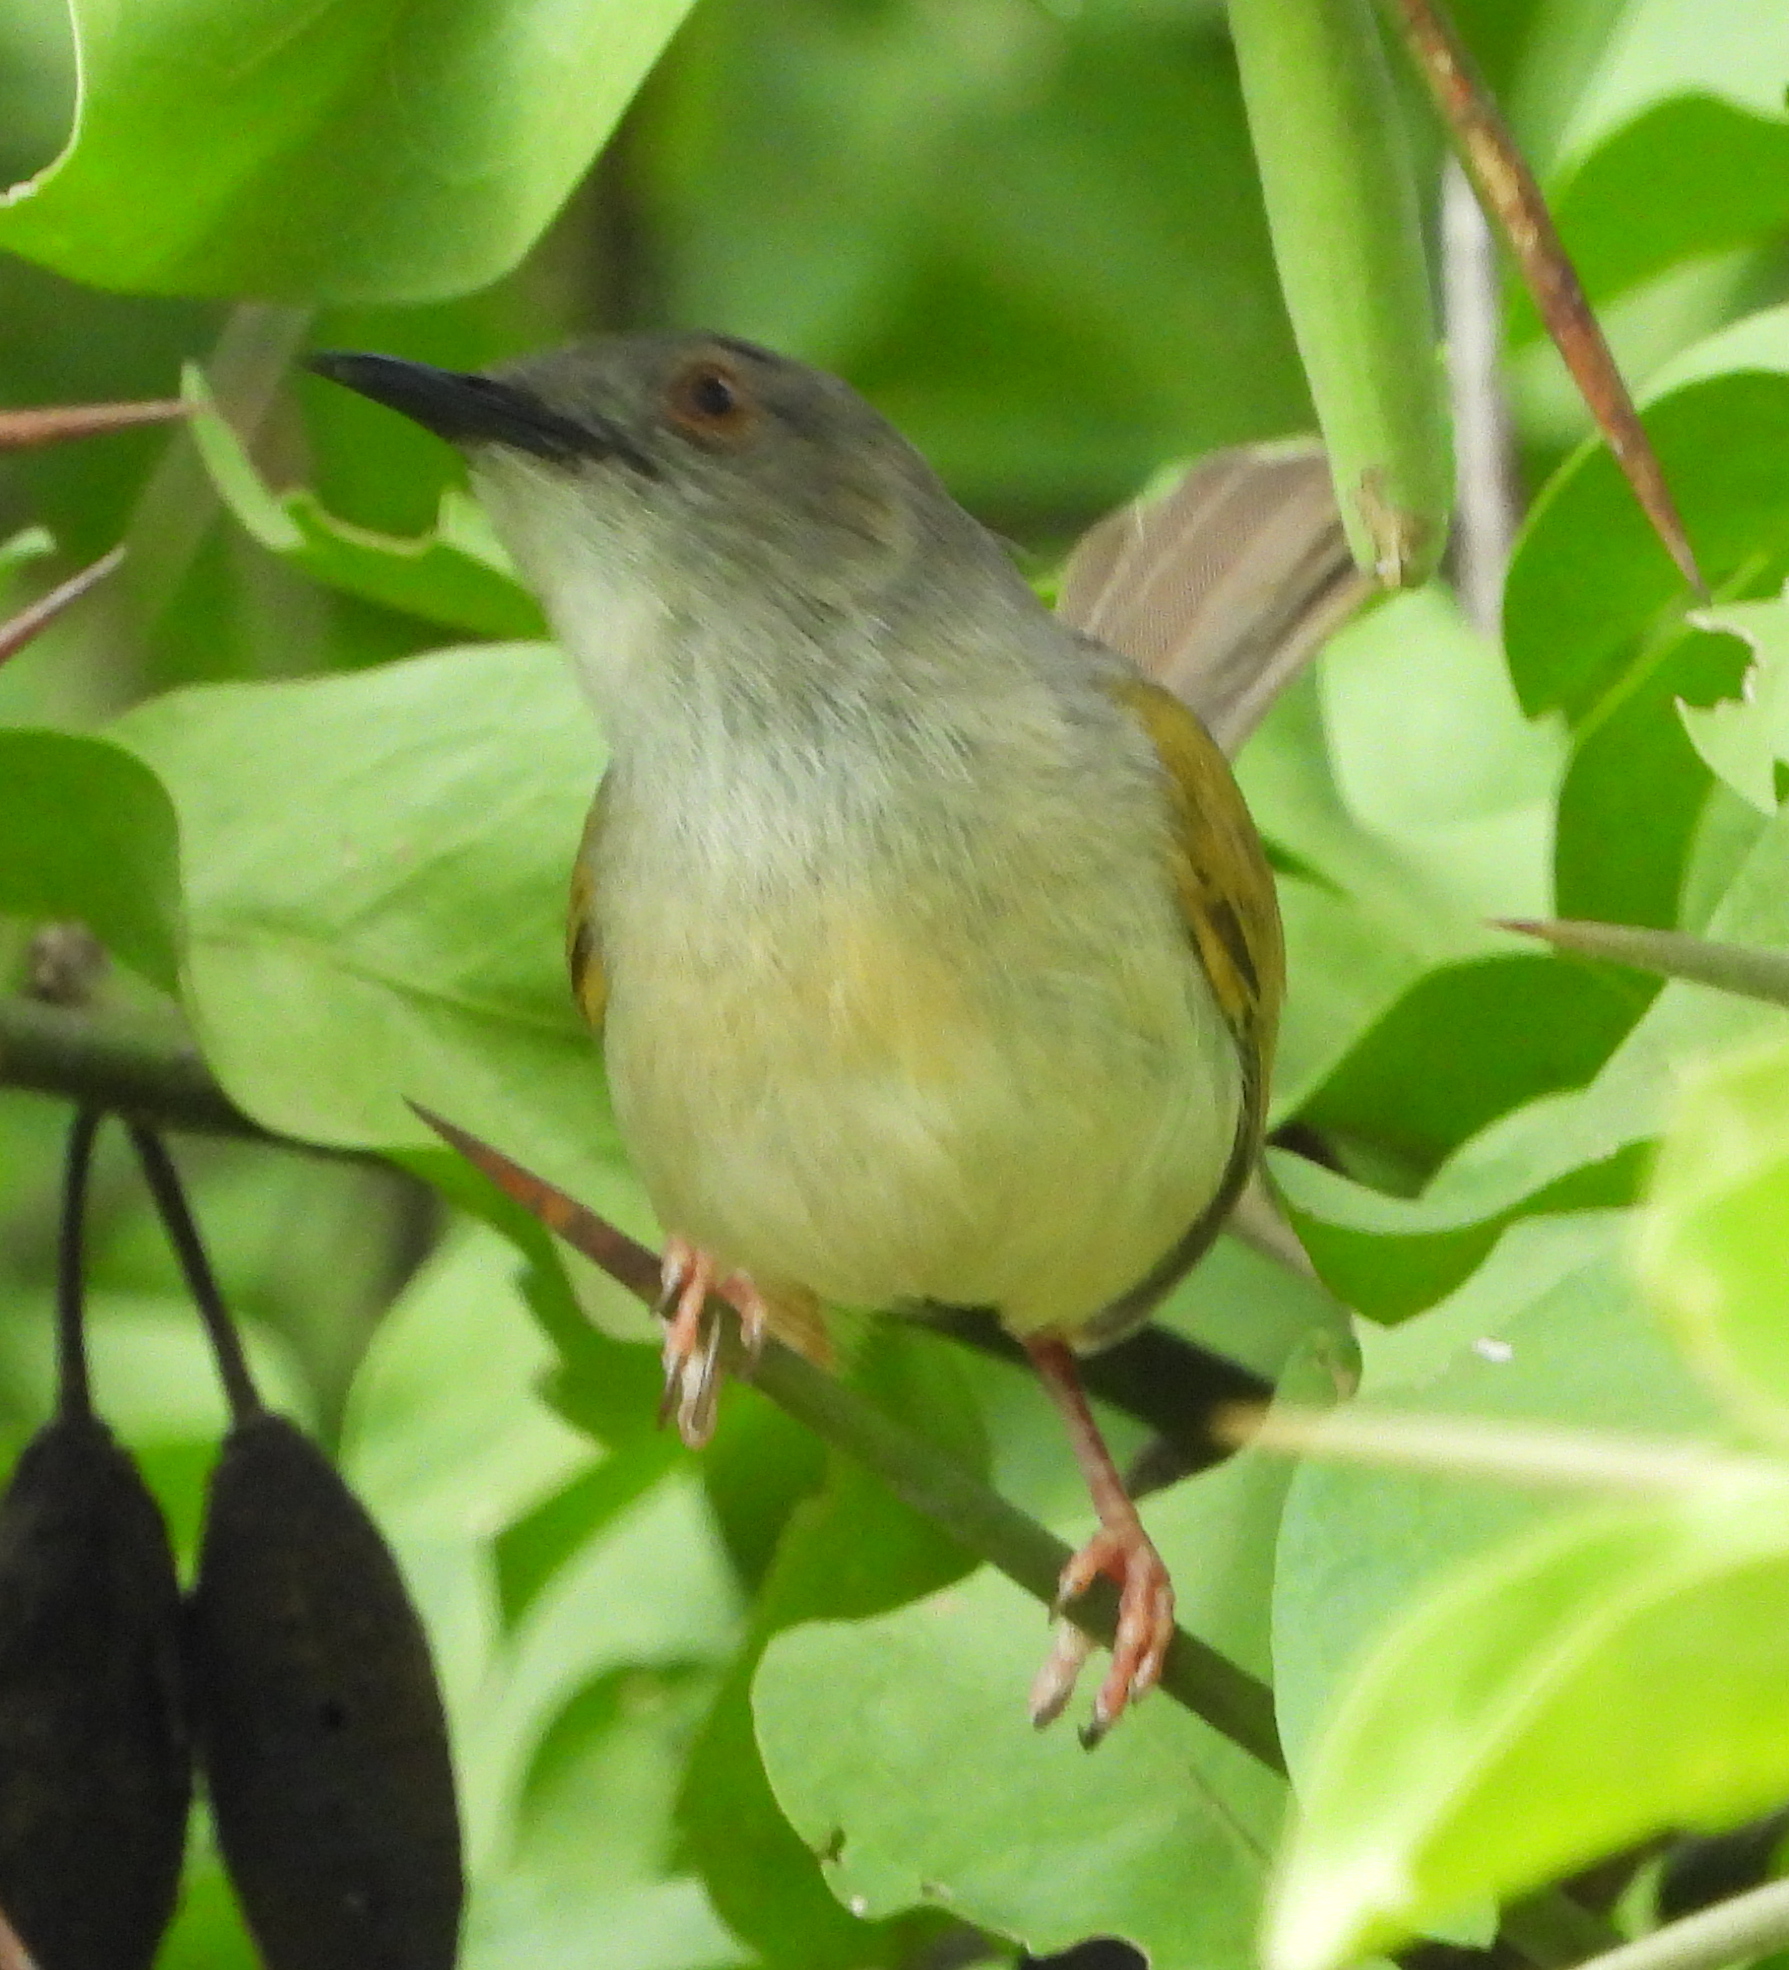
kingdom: Animalia
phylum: Chordata
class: Aves
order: Passeriformes
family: Cisticolidae
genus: Camaroptera
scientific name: Camaroptera brachyura
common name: Green-backed camaroptera
